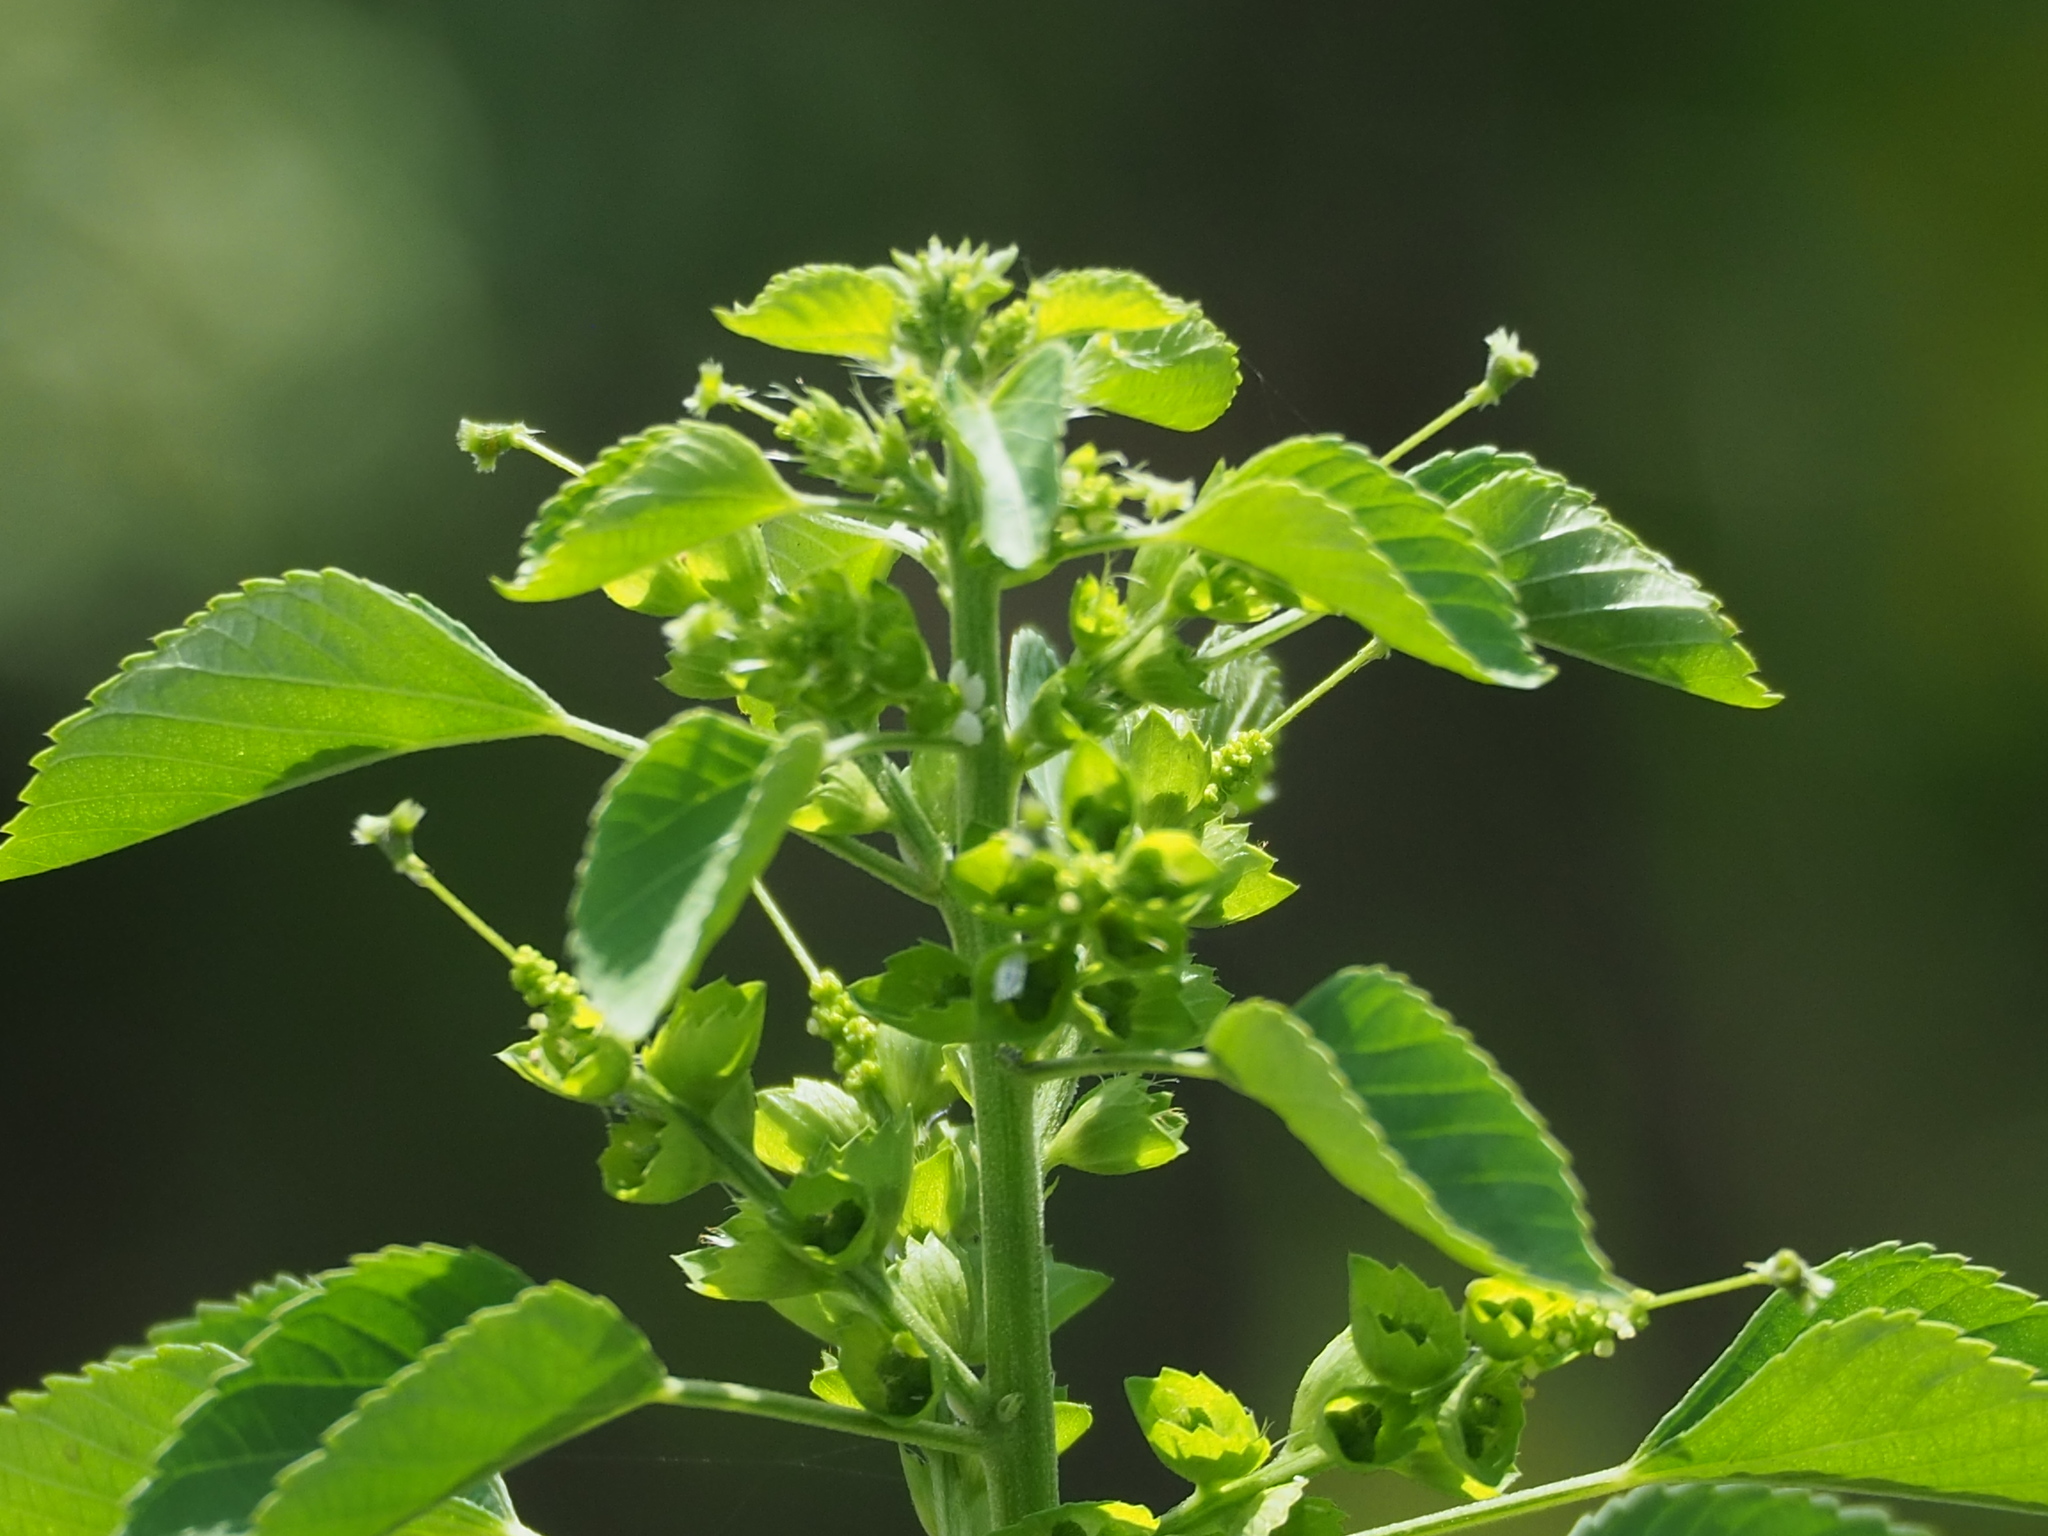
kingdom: Plantae
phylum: Tracheophyta
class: Magnoliopsida
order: Malpighiales
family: Euphorbiaceae
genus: Acalypha
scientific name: Acalypha indica
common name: Indian acalypha
